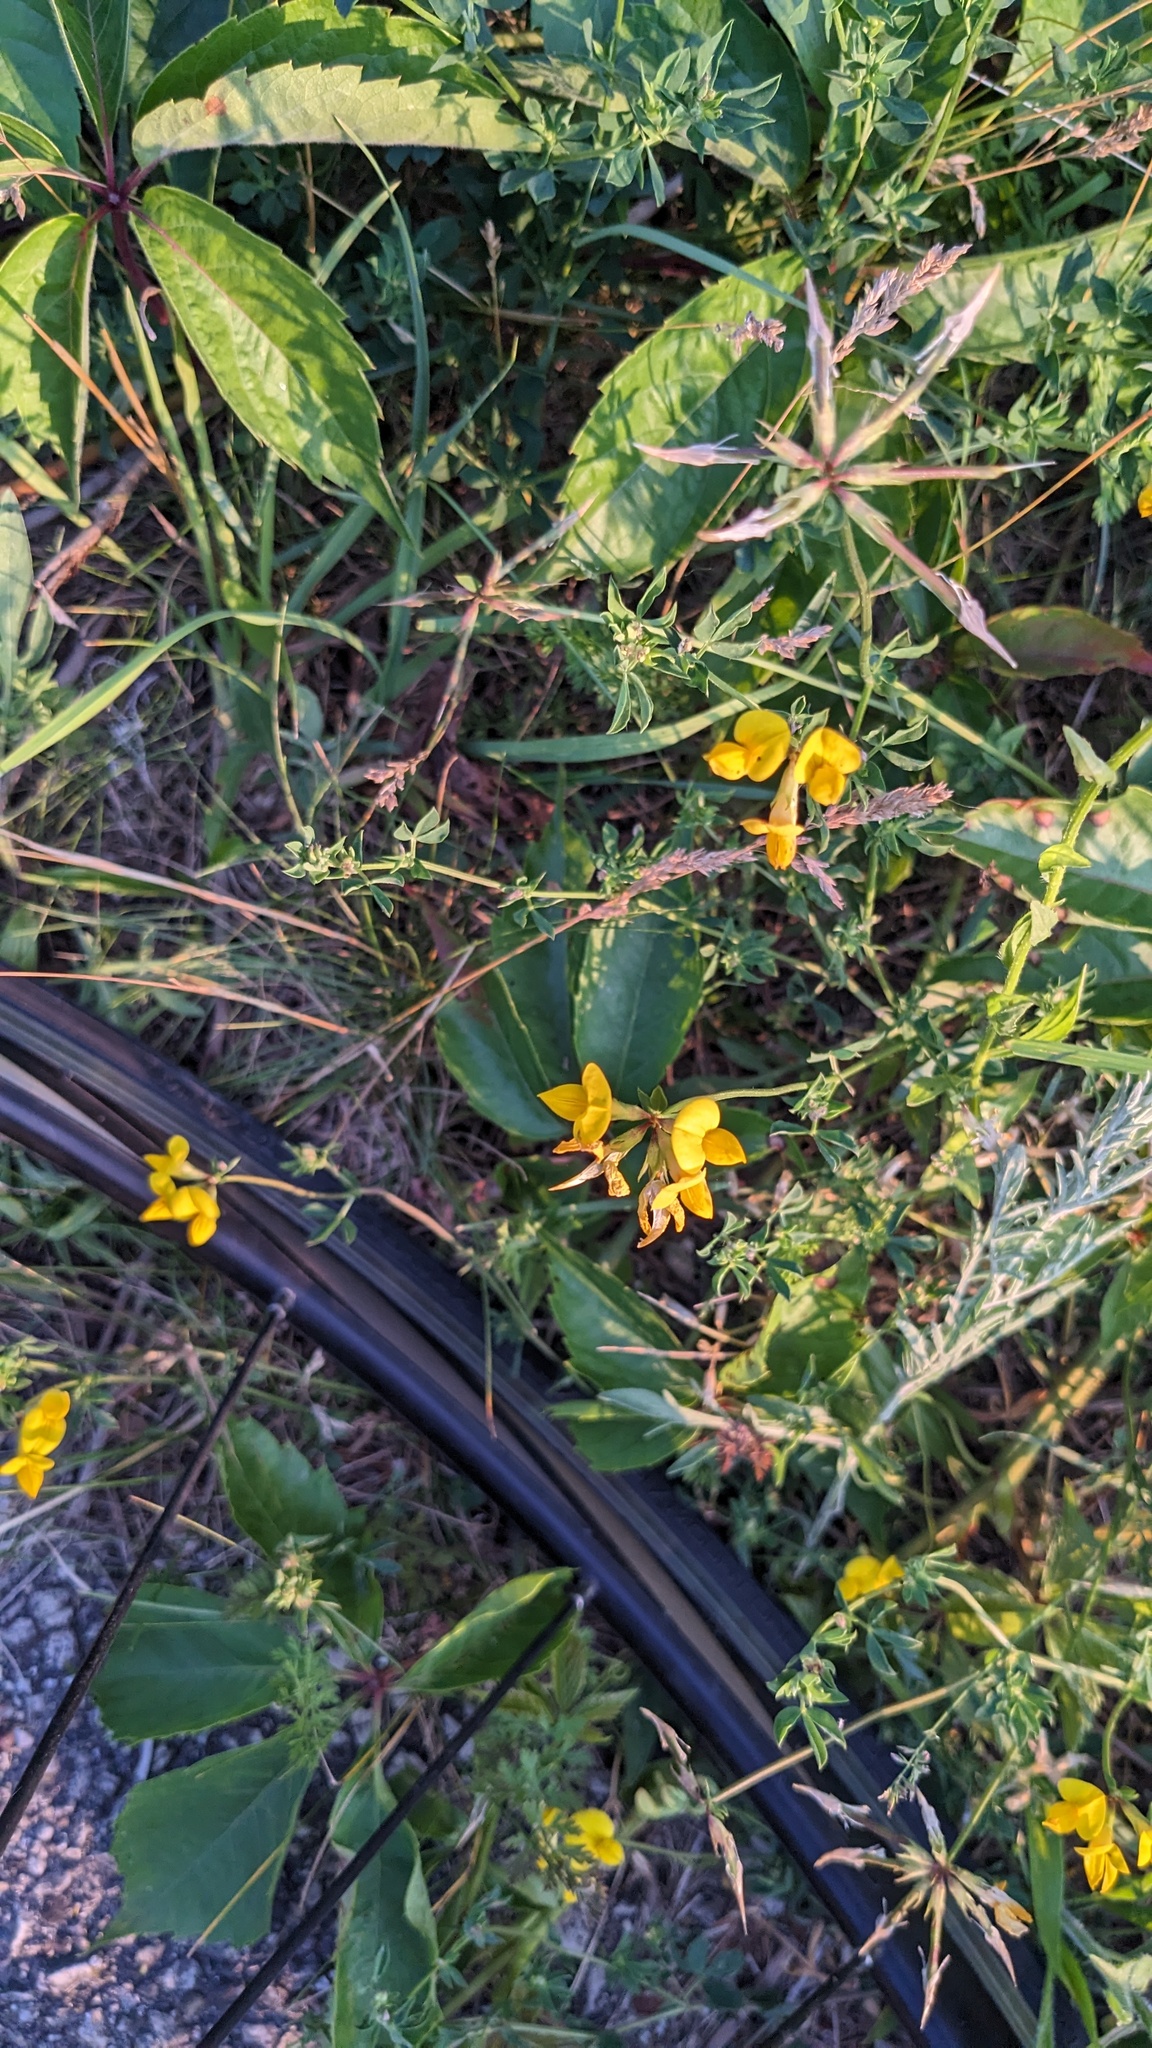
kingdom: Plantae
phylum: Tracheophyta
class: Magnoliopsida
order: Fabales
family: Fabaceae
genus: Lotus
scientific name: Lotus corniculatus
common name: Common bird's-foot-trefoil
